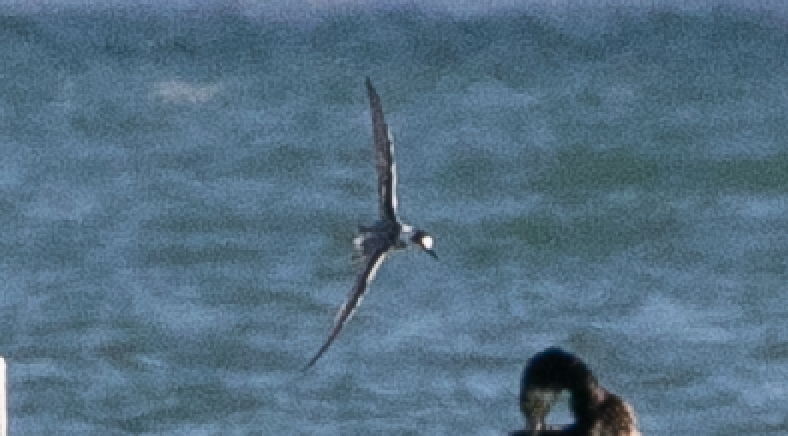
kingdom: Animalia
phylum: Chordata
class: Aves
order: Charadriiformes
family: Laridae
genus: Chlidonias
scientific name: Chlidonias niger
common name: Black tern
